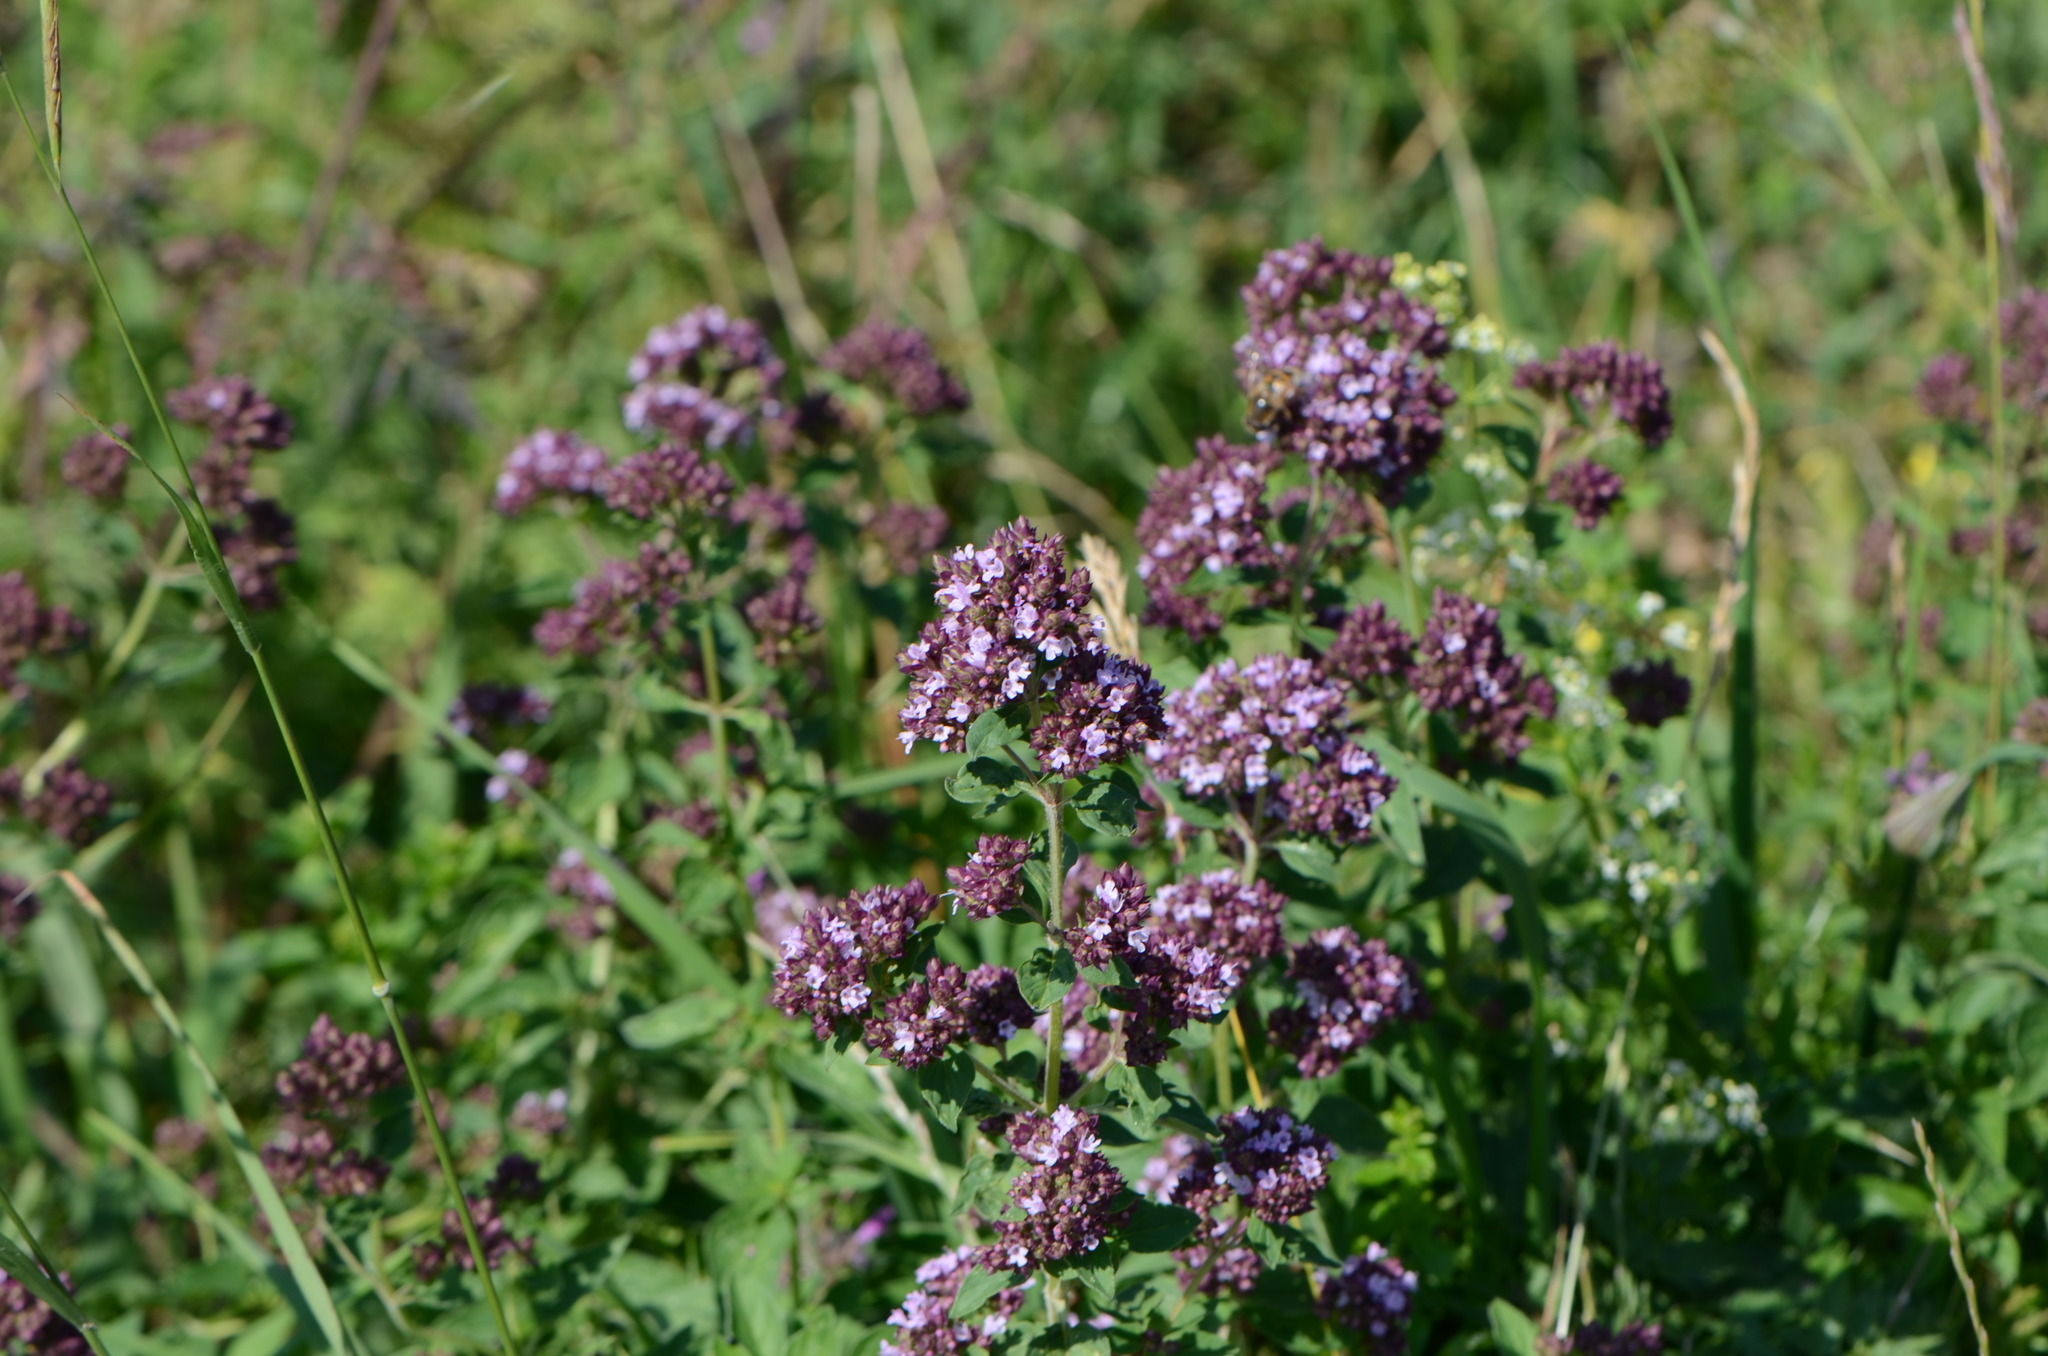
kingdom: Plantae
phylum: Tracheophyta
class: Magnoliopsida
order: Lamiales
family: Lamiaceae
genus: Origanum
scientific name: Origanum vulgare
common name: Wild marjoram
